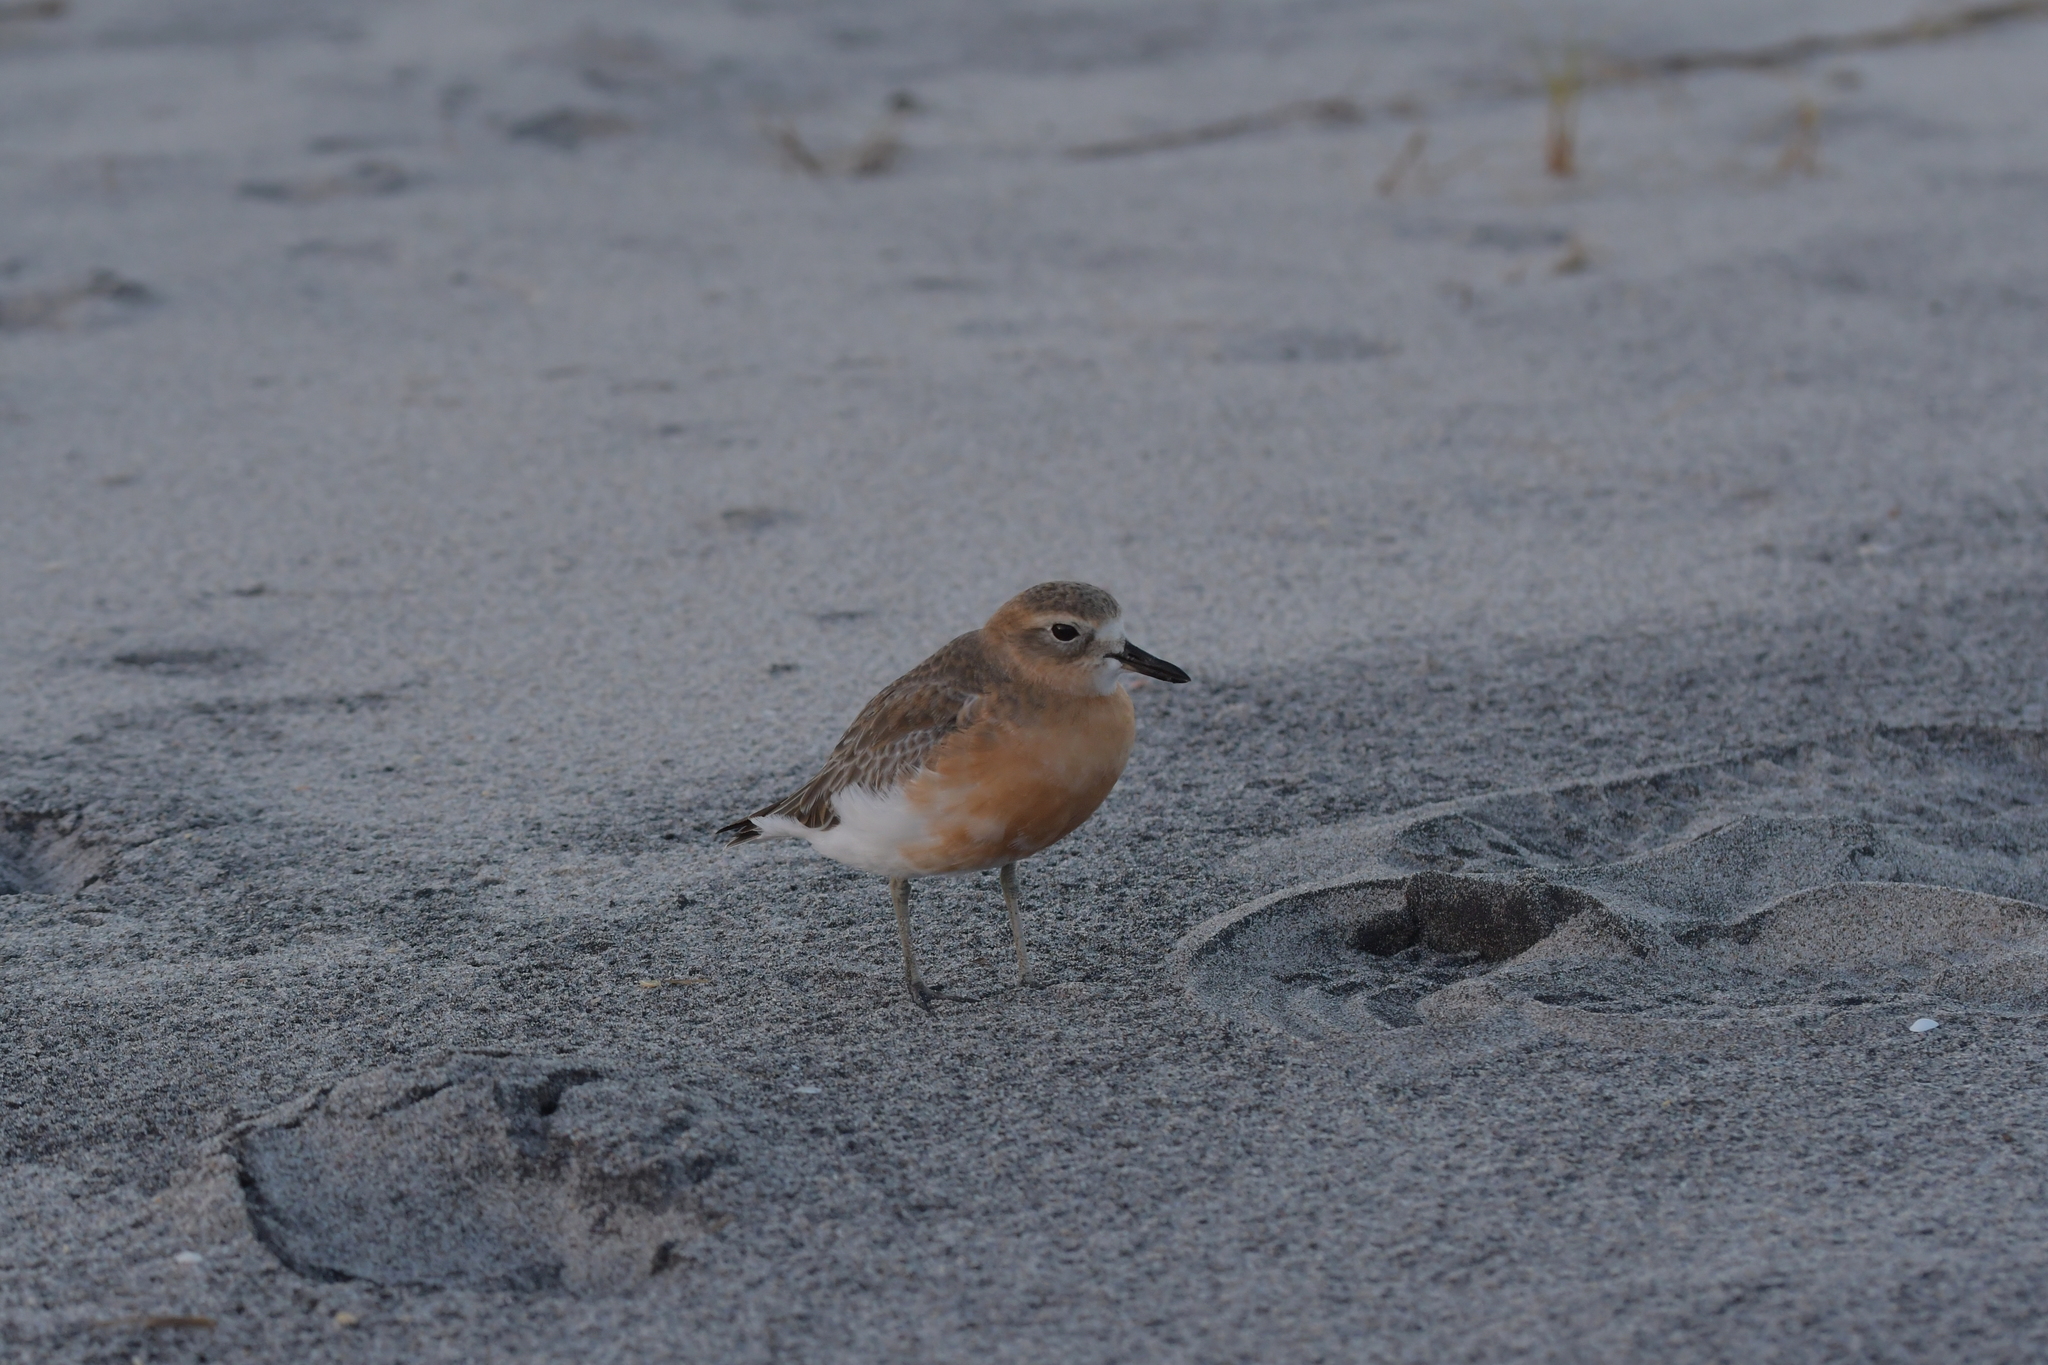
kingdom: Animalia
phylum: Chordata
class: Aves
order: Charadriiformes
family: Charadriidae
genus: Anarhynchus
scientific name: Anarhynchus
